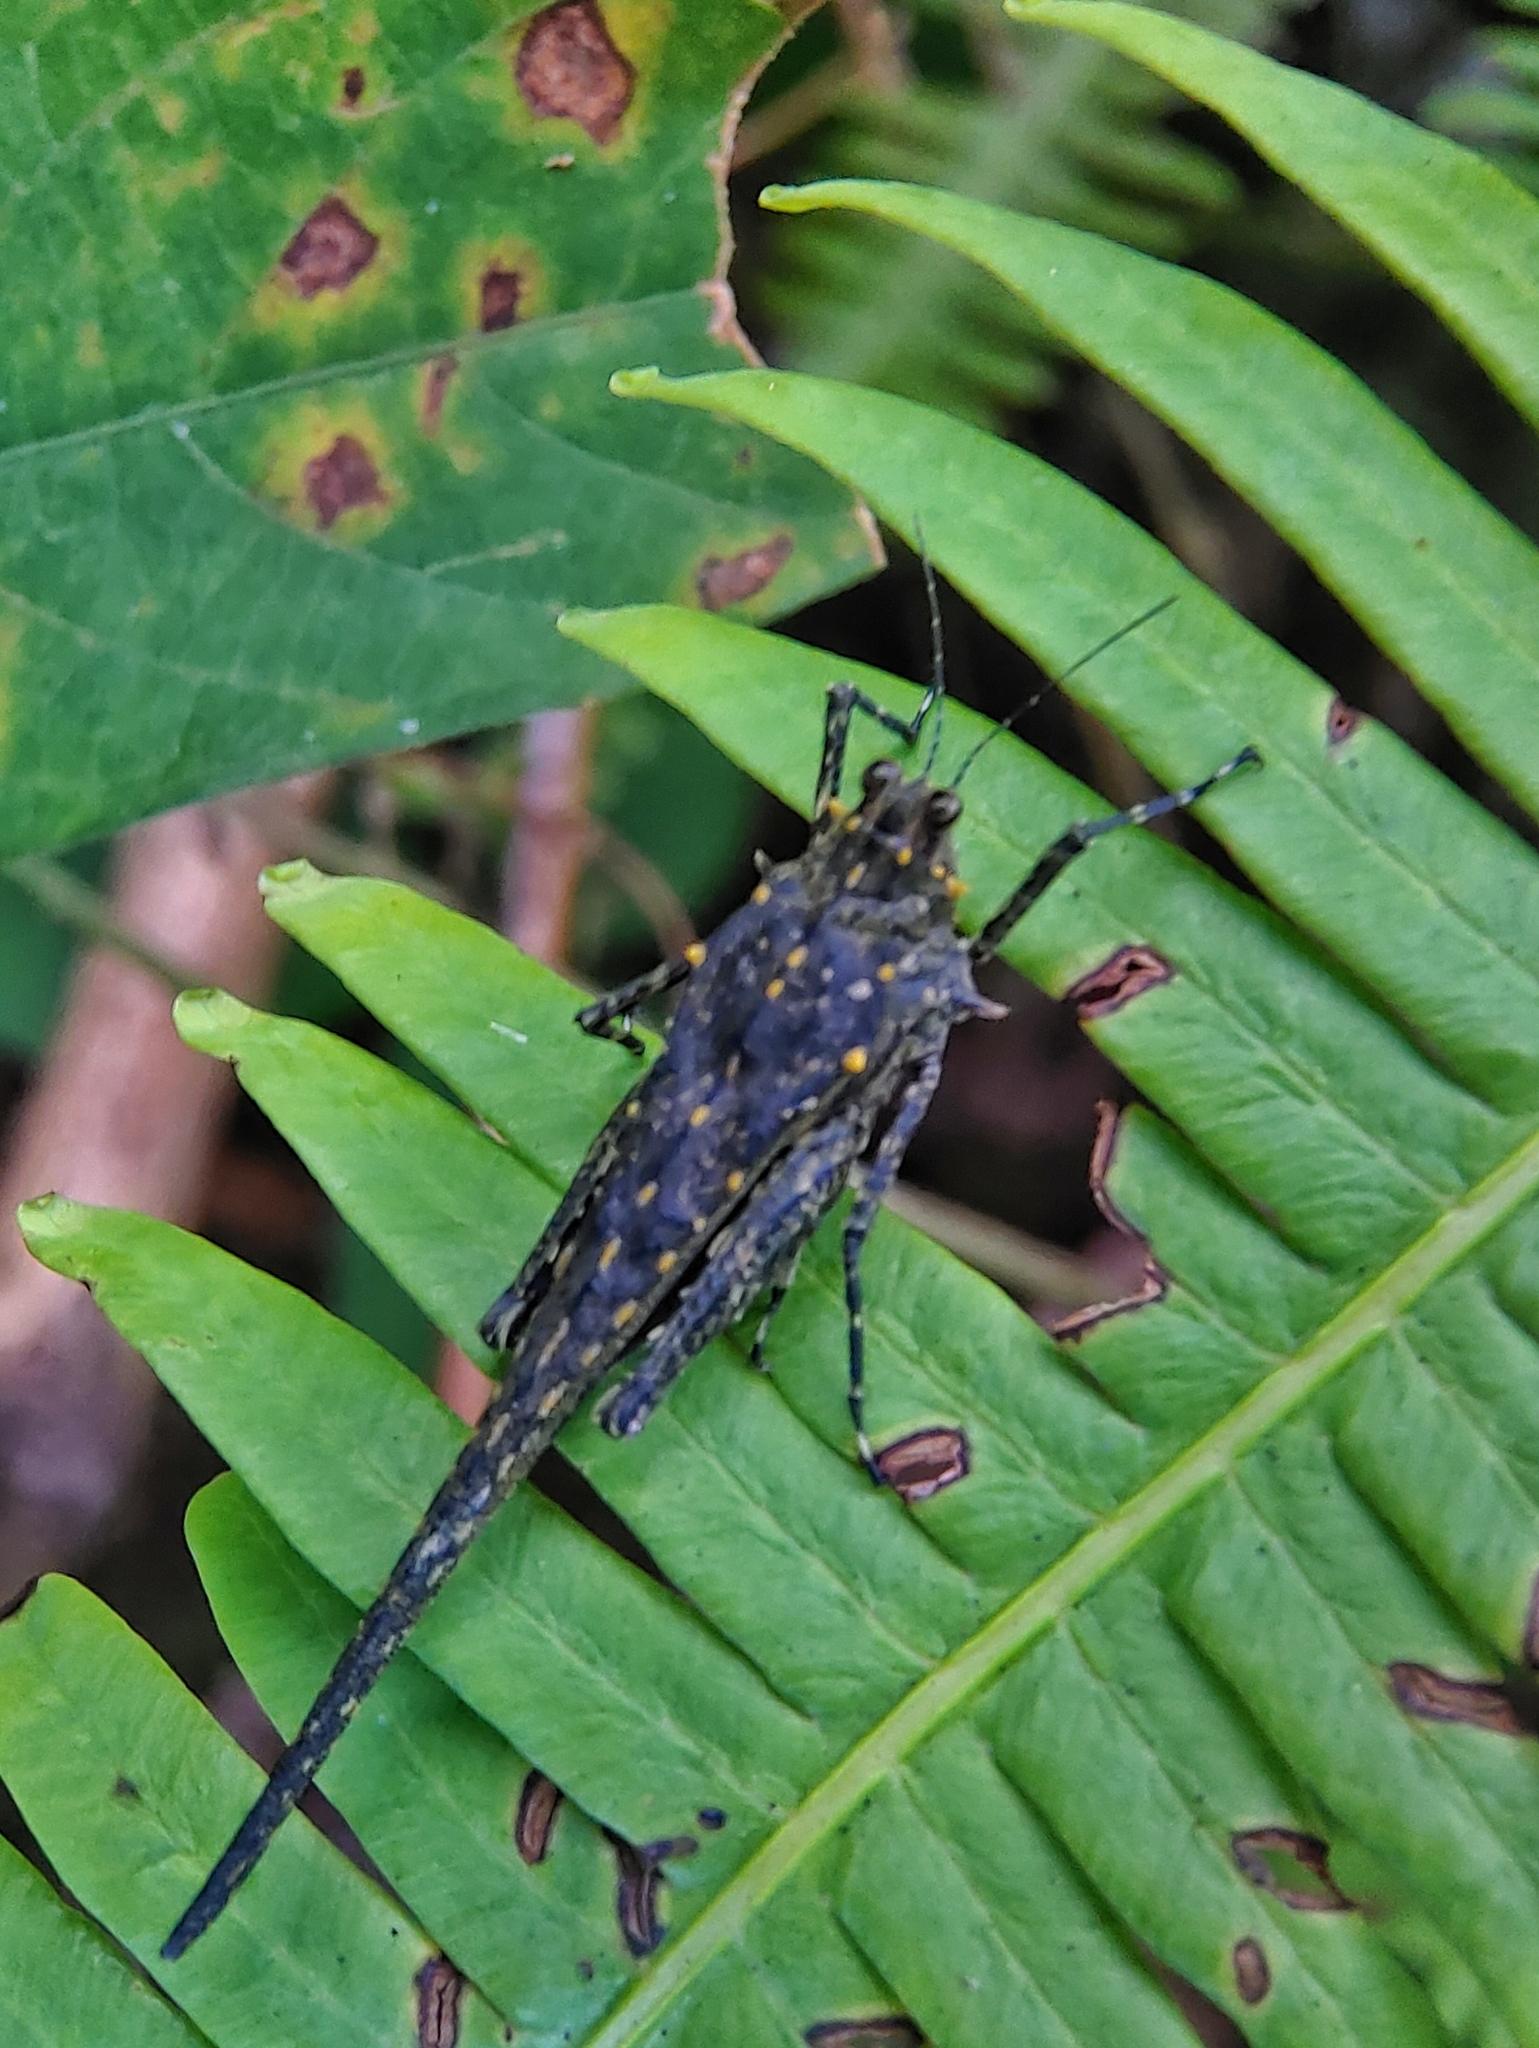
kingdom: Animalia
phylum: Arthropoda
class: Insecta
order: Orthoptera
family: Tetrigidae
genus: Scelimena
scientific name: Scelimena gombakensis
